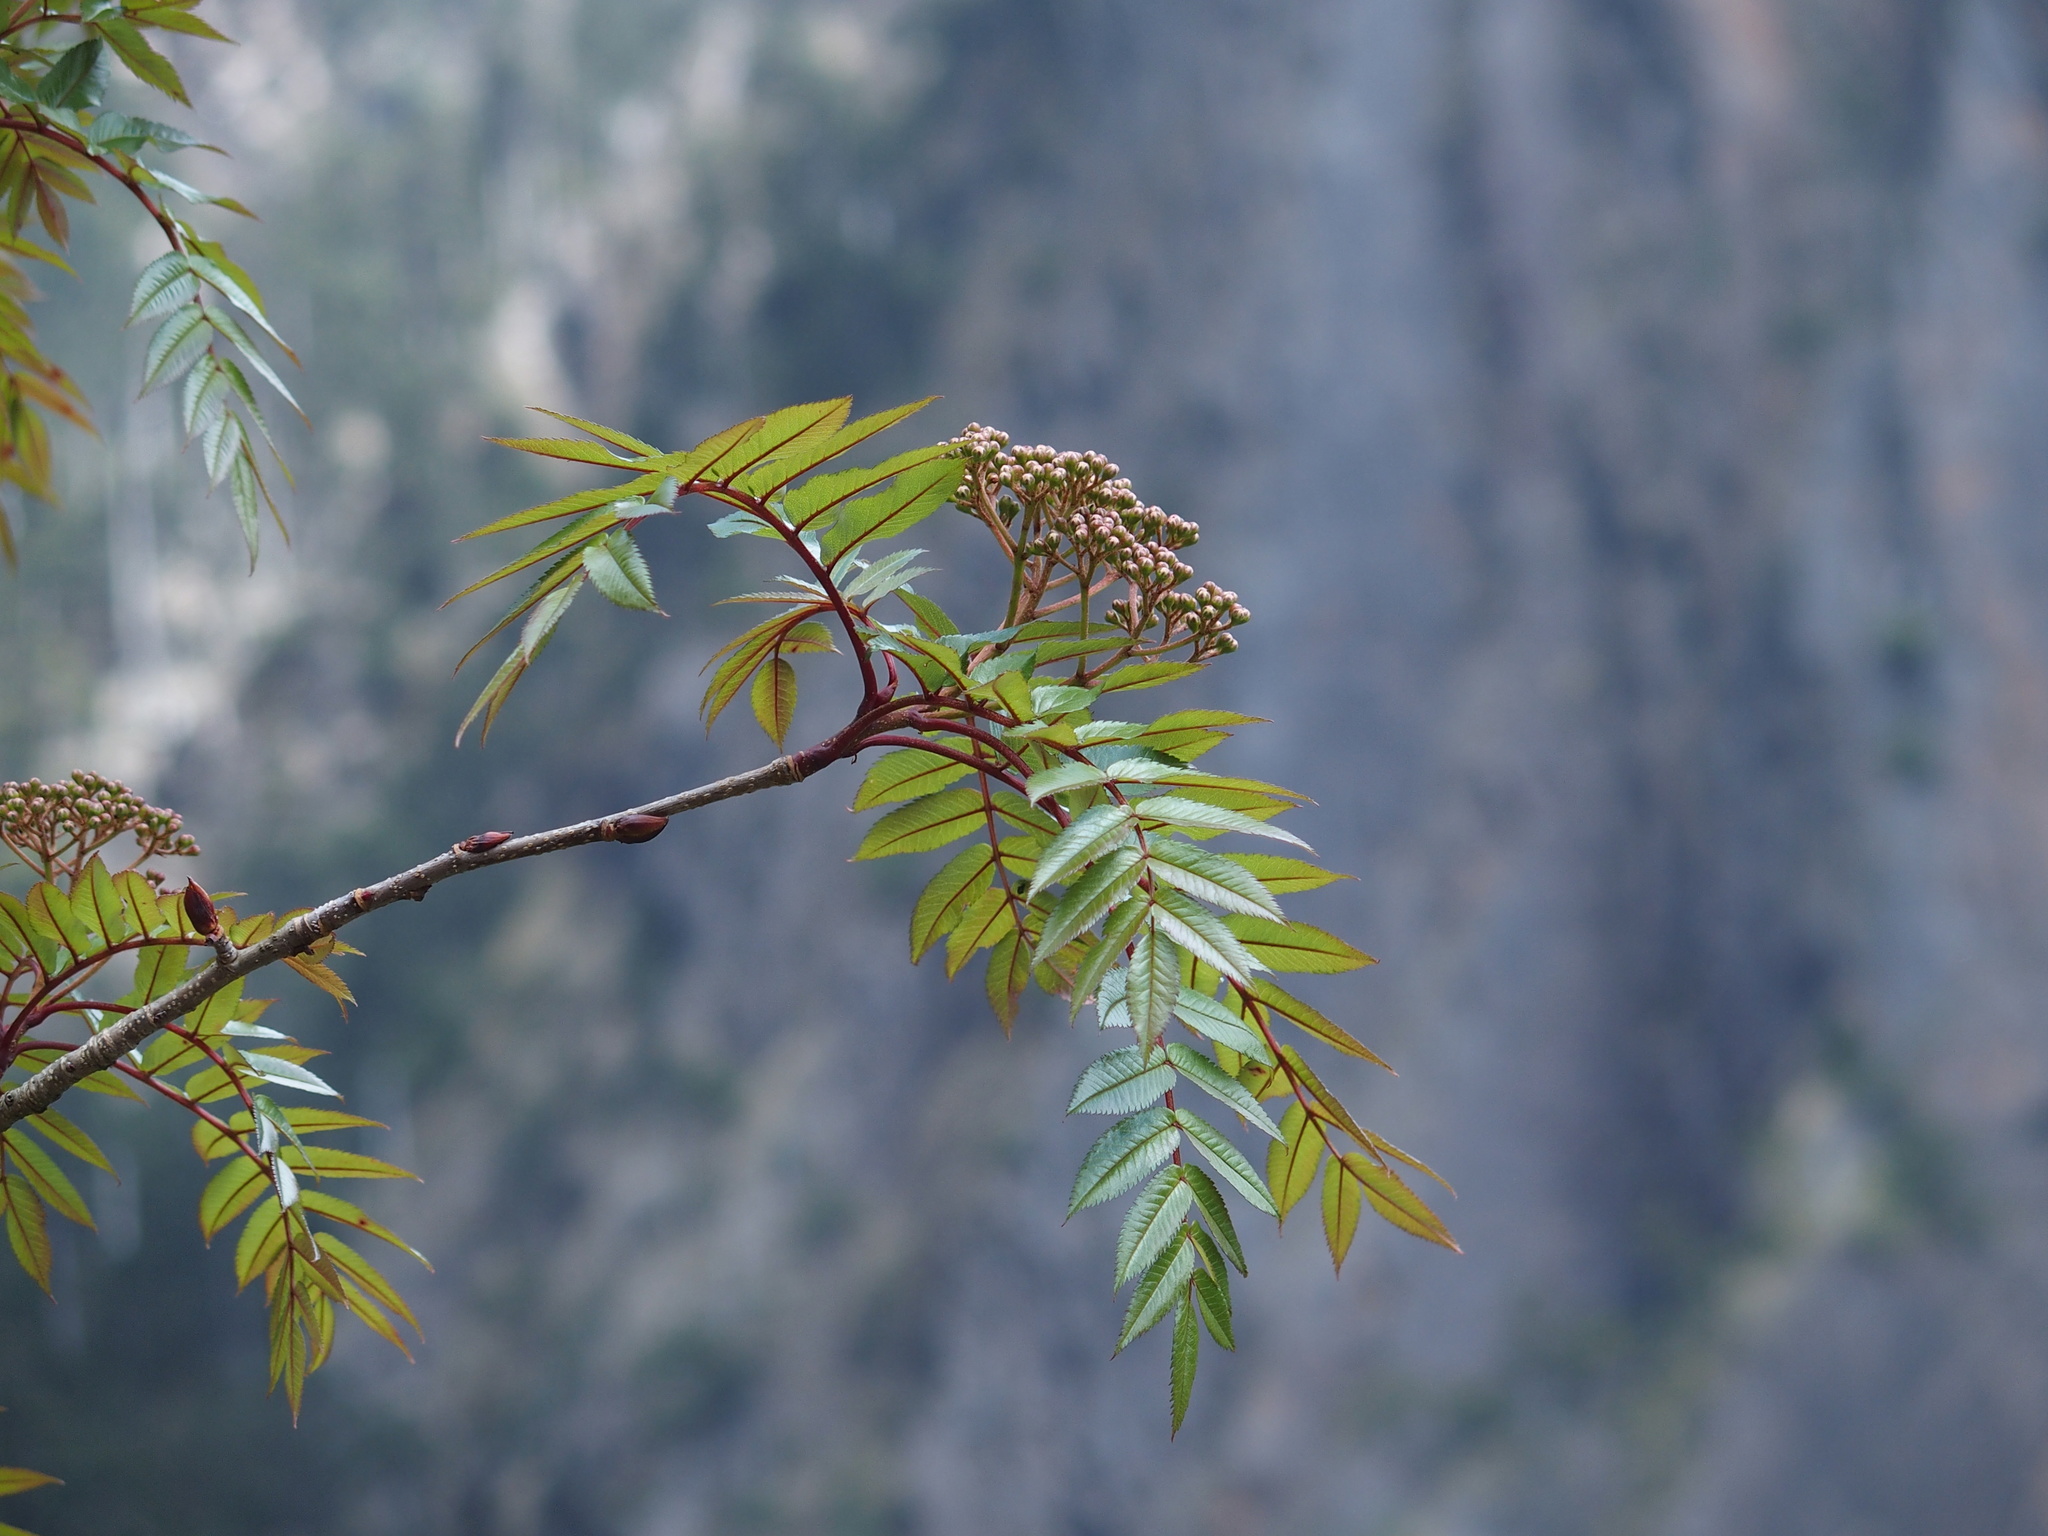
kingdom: Plantae
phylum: Tracheophyta
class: Magnoliopsida
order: Rosales
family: Rosaceae
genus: Sorbus
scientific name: Sorbus randaiensis
